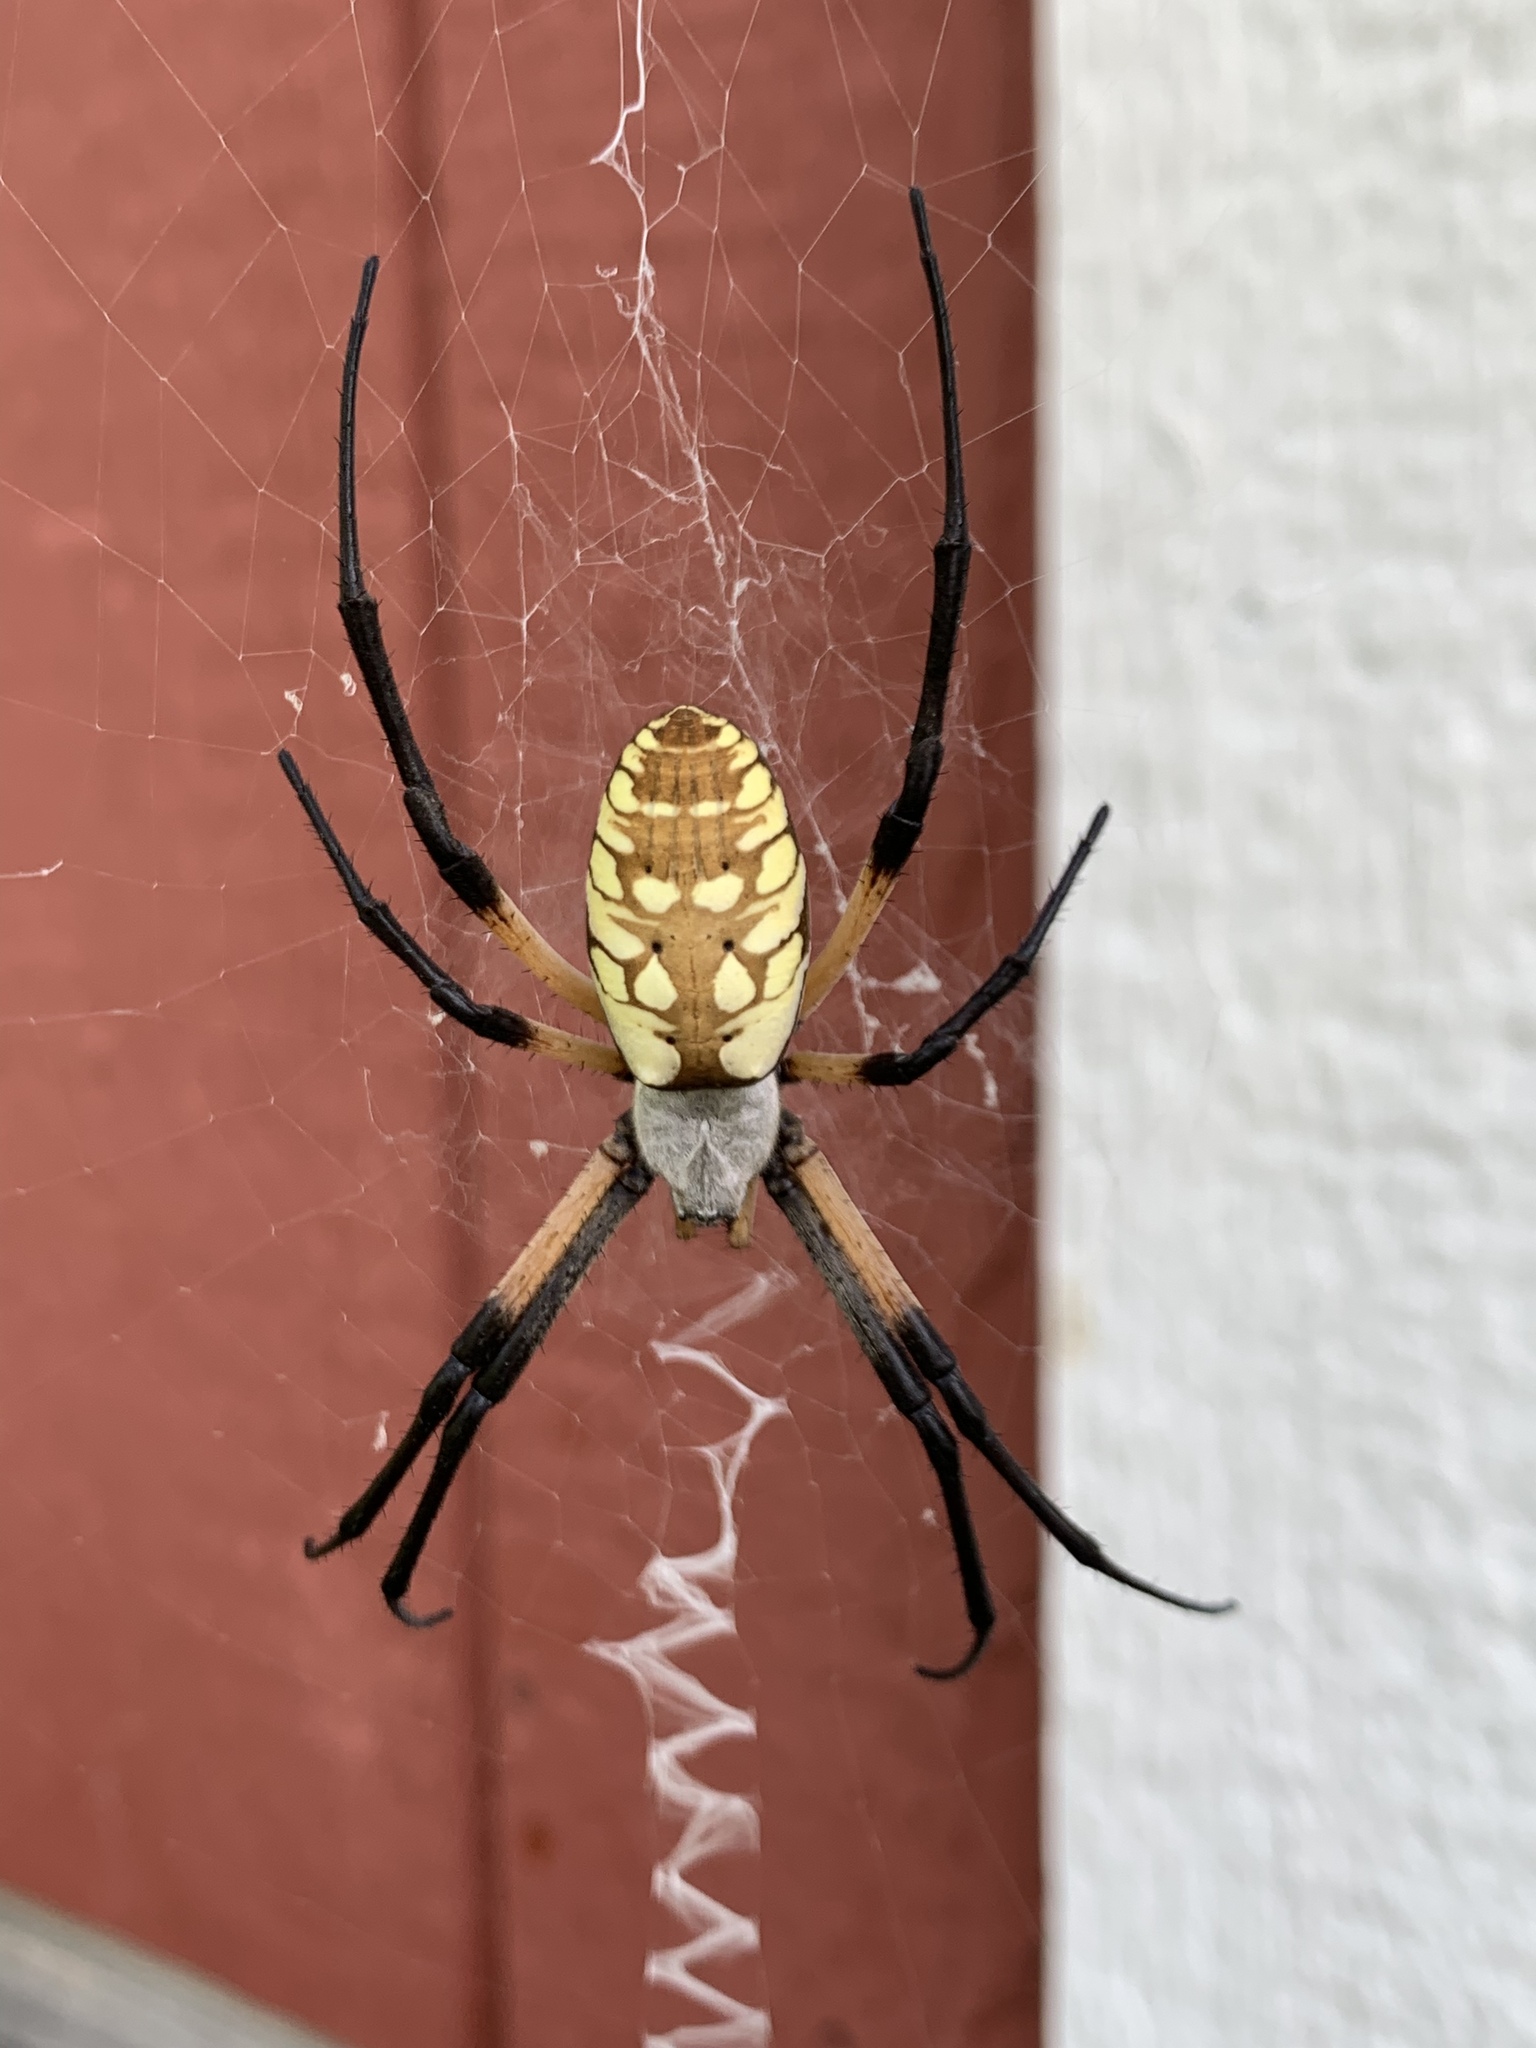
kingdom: Animalia
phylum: Arthropoda
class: Arachnida
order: Araneae
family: Araneidae
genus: Argiope
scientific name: Argiope aurantia
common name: Orb weavers
